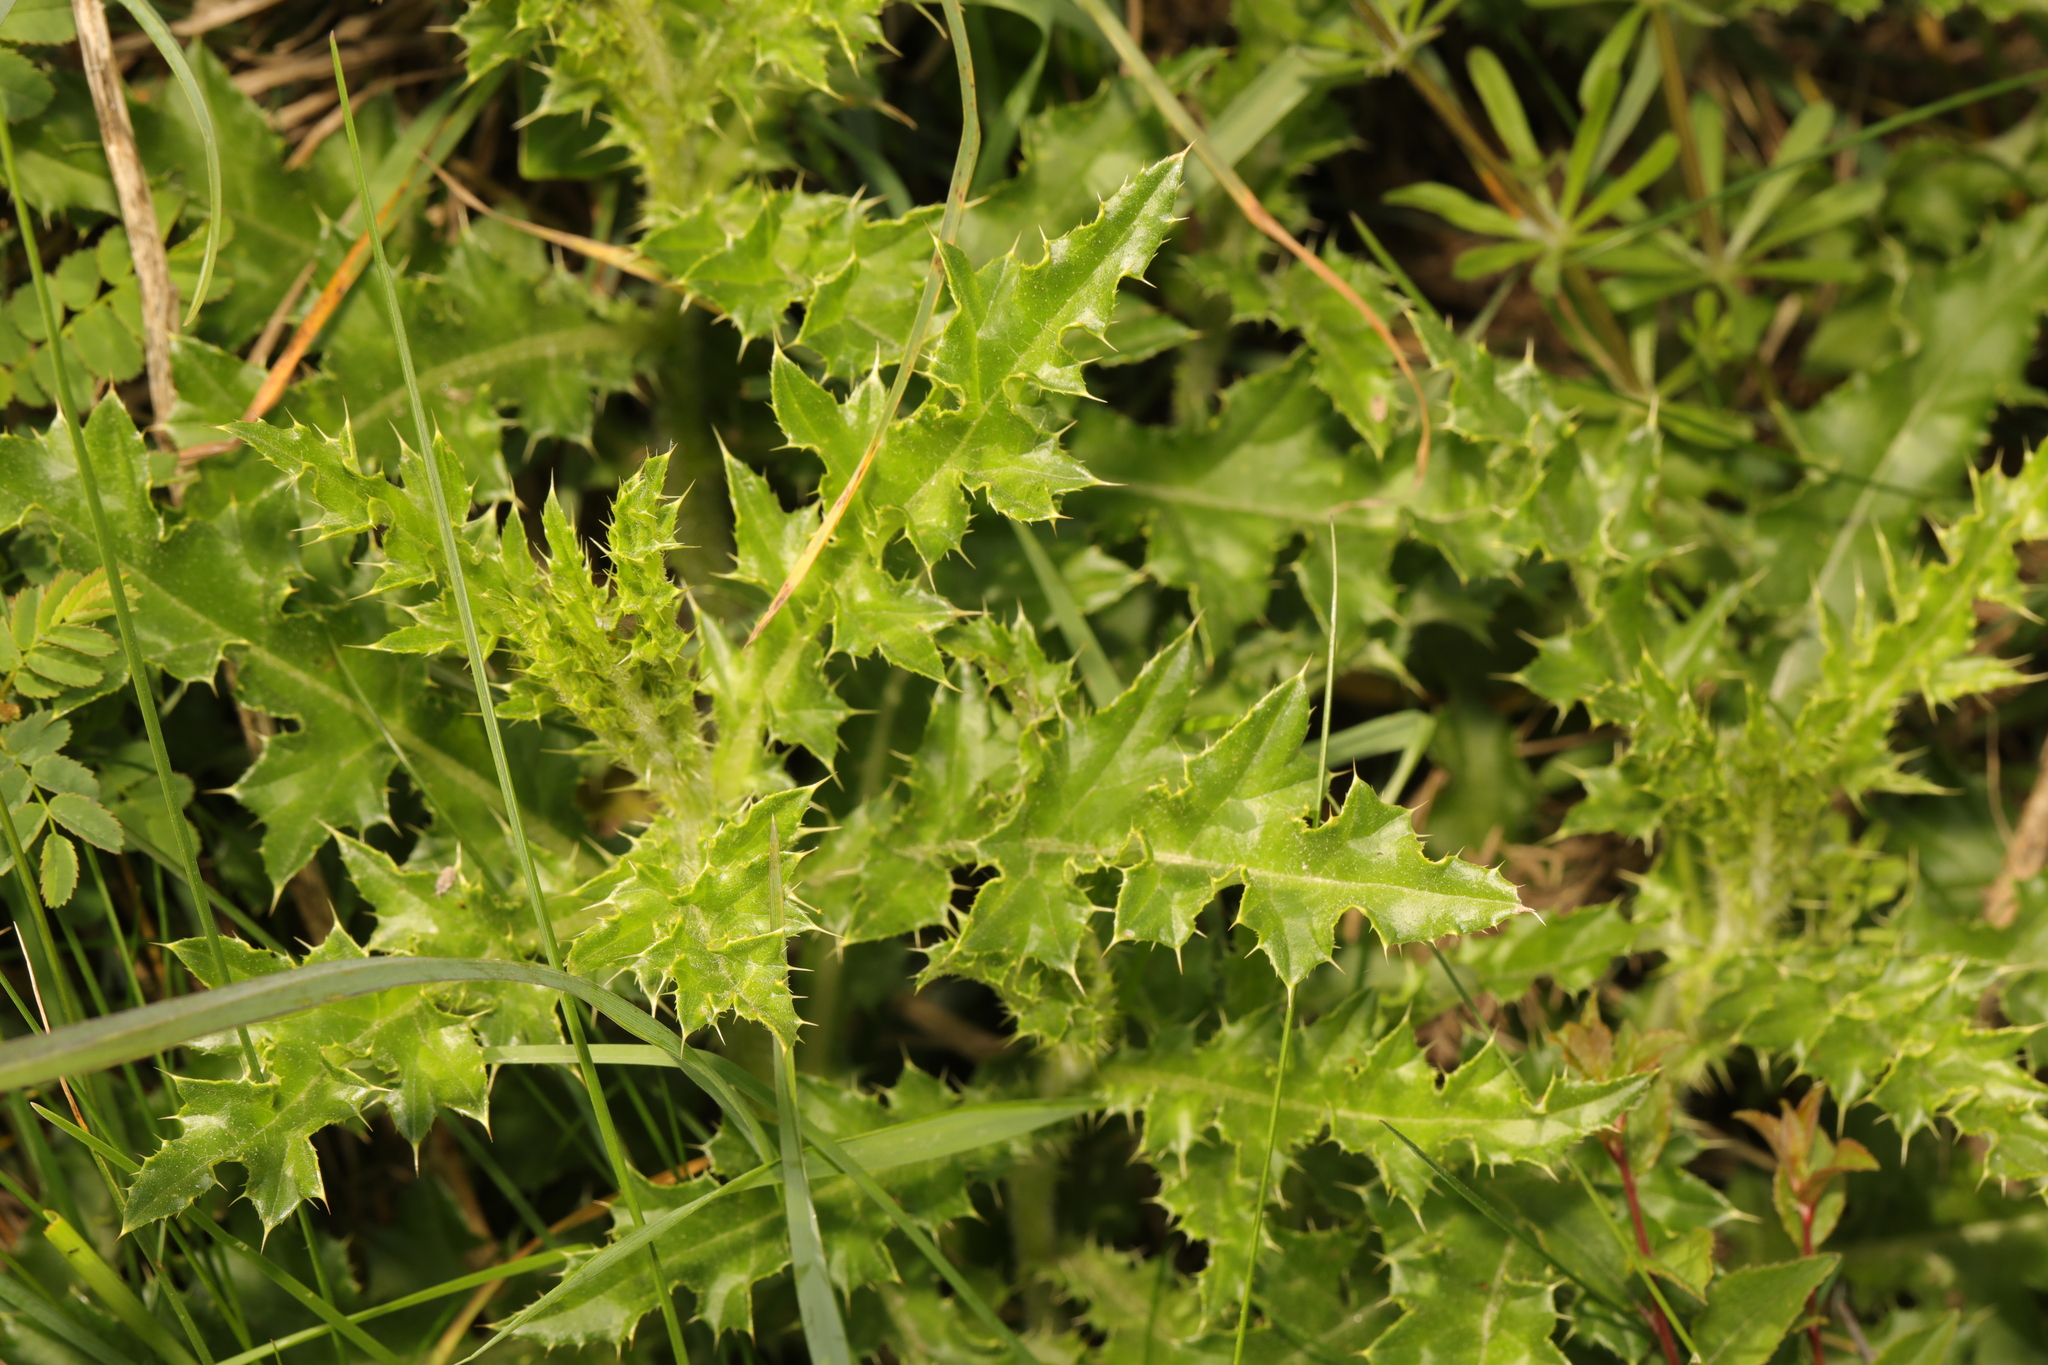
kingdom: Plantae
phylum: Tracheophyta
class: Magnoliopsida
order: Asterales
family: Asteraceae
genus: Cirsium
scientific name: Cirsium arvense
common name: Creeping thistle
